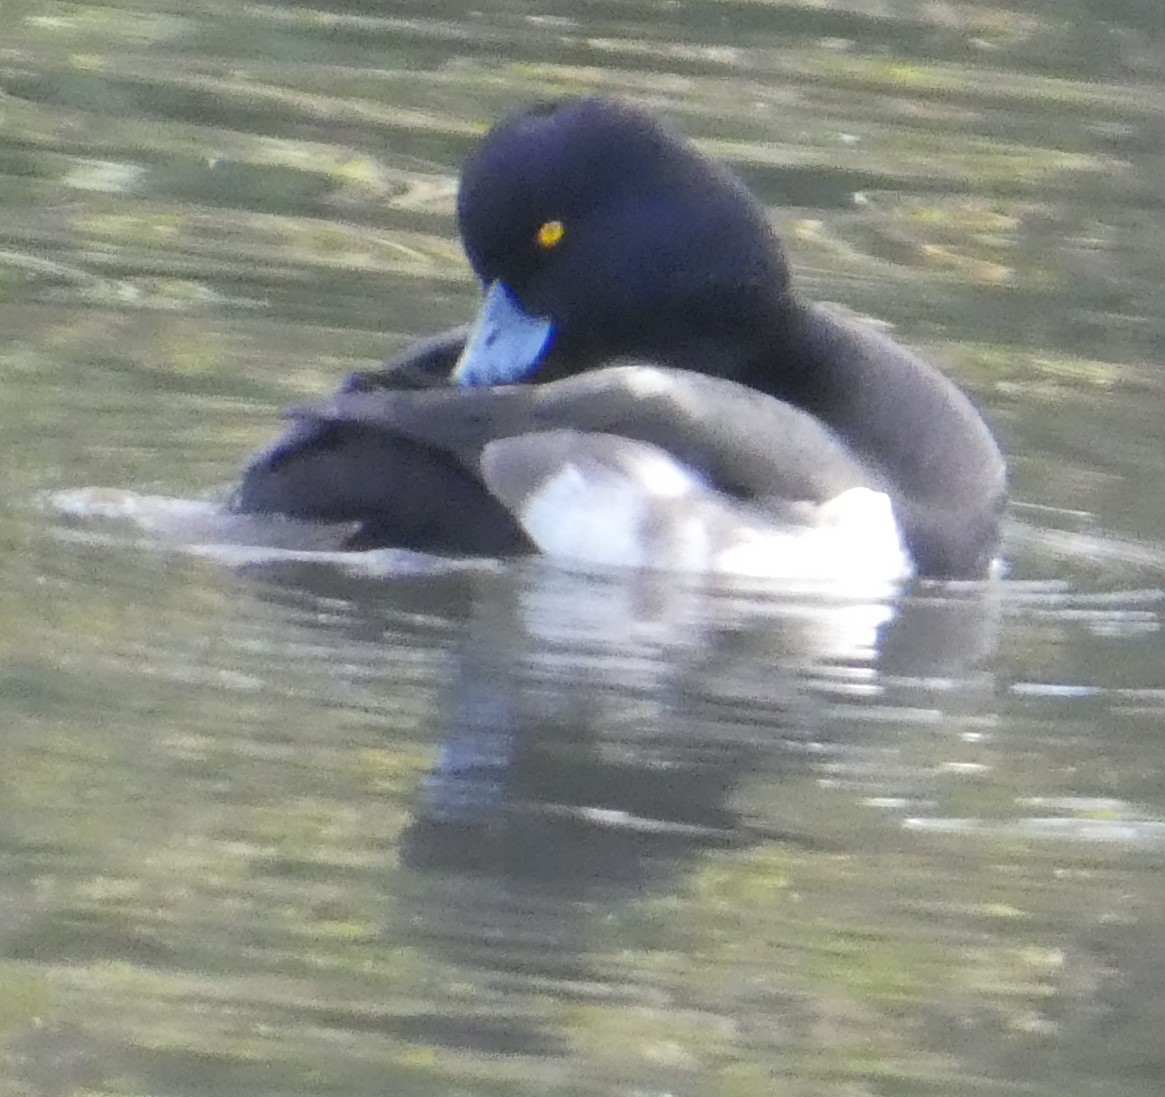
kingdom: Animalia
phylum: Chordata
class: Aves
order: Anseriformes
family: Anatidae
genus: Aythya
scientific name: Aythya fuligula
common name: Tufted duck
